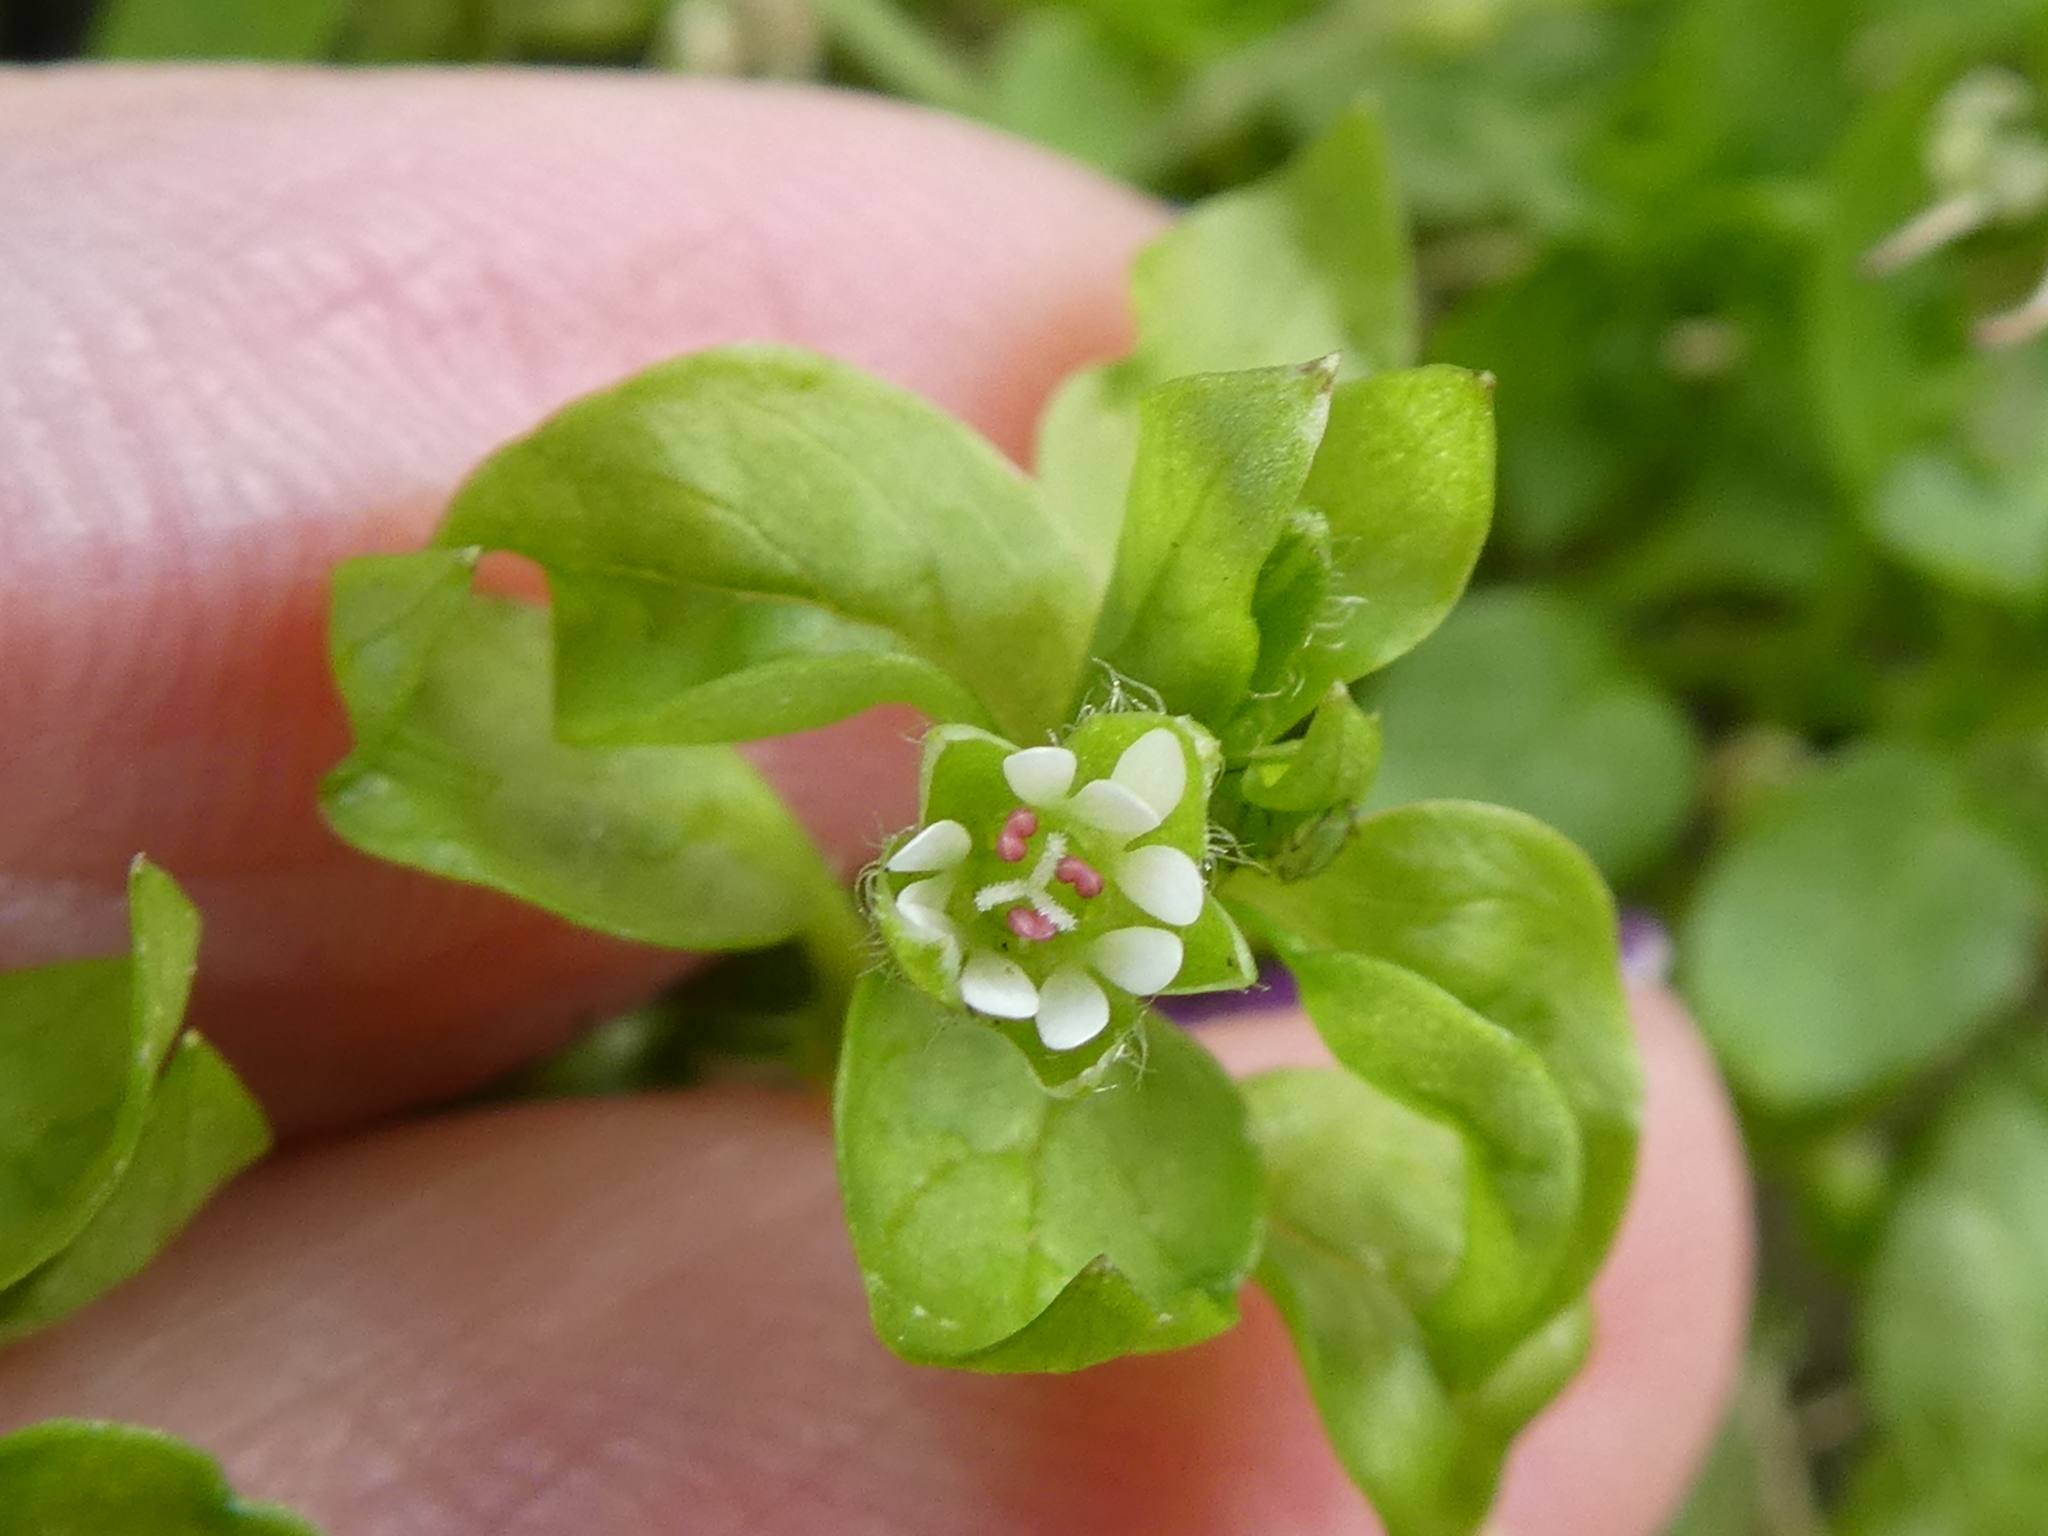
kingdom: Plantae
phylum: Tracheophyta
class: Magnoliopsida
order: Caryophyllales
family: Caryophyllaceae
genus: Stellaria
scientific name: Stellaria media
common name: Common chickweed
